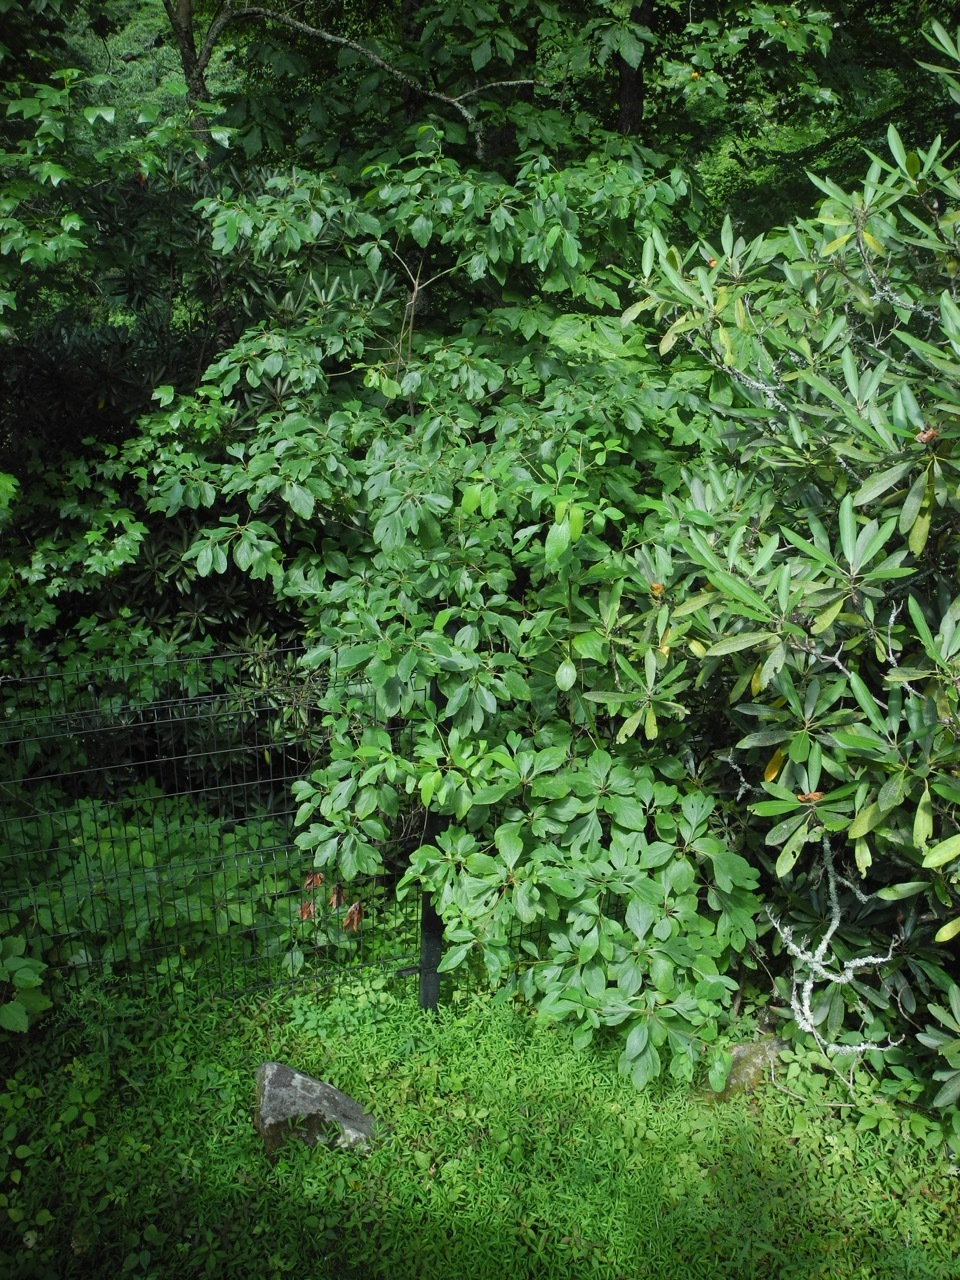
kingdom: Plantae
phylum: Tracheophyta
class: Magnoliopsida
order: Laurales
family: Lauraceae
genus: Sassafras
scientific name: Sassafras albidum
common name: Sassafras
